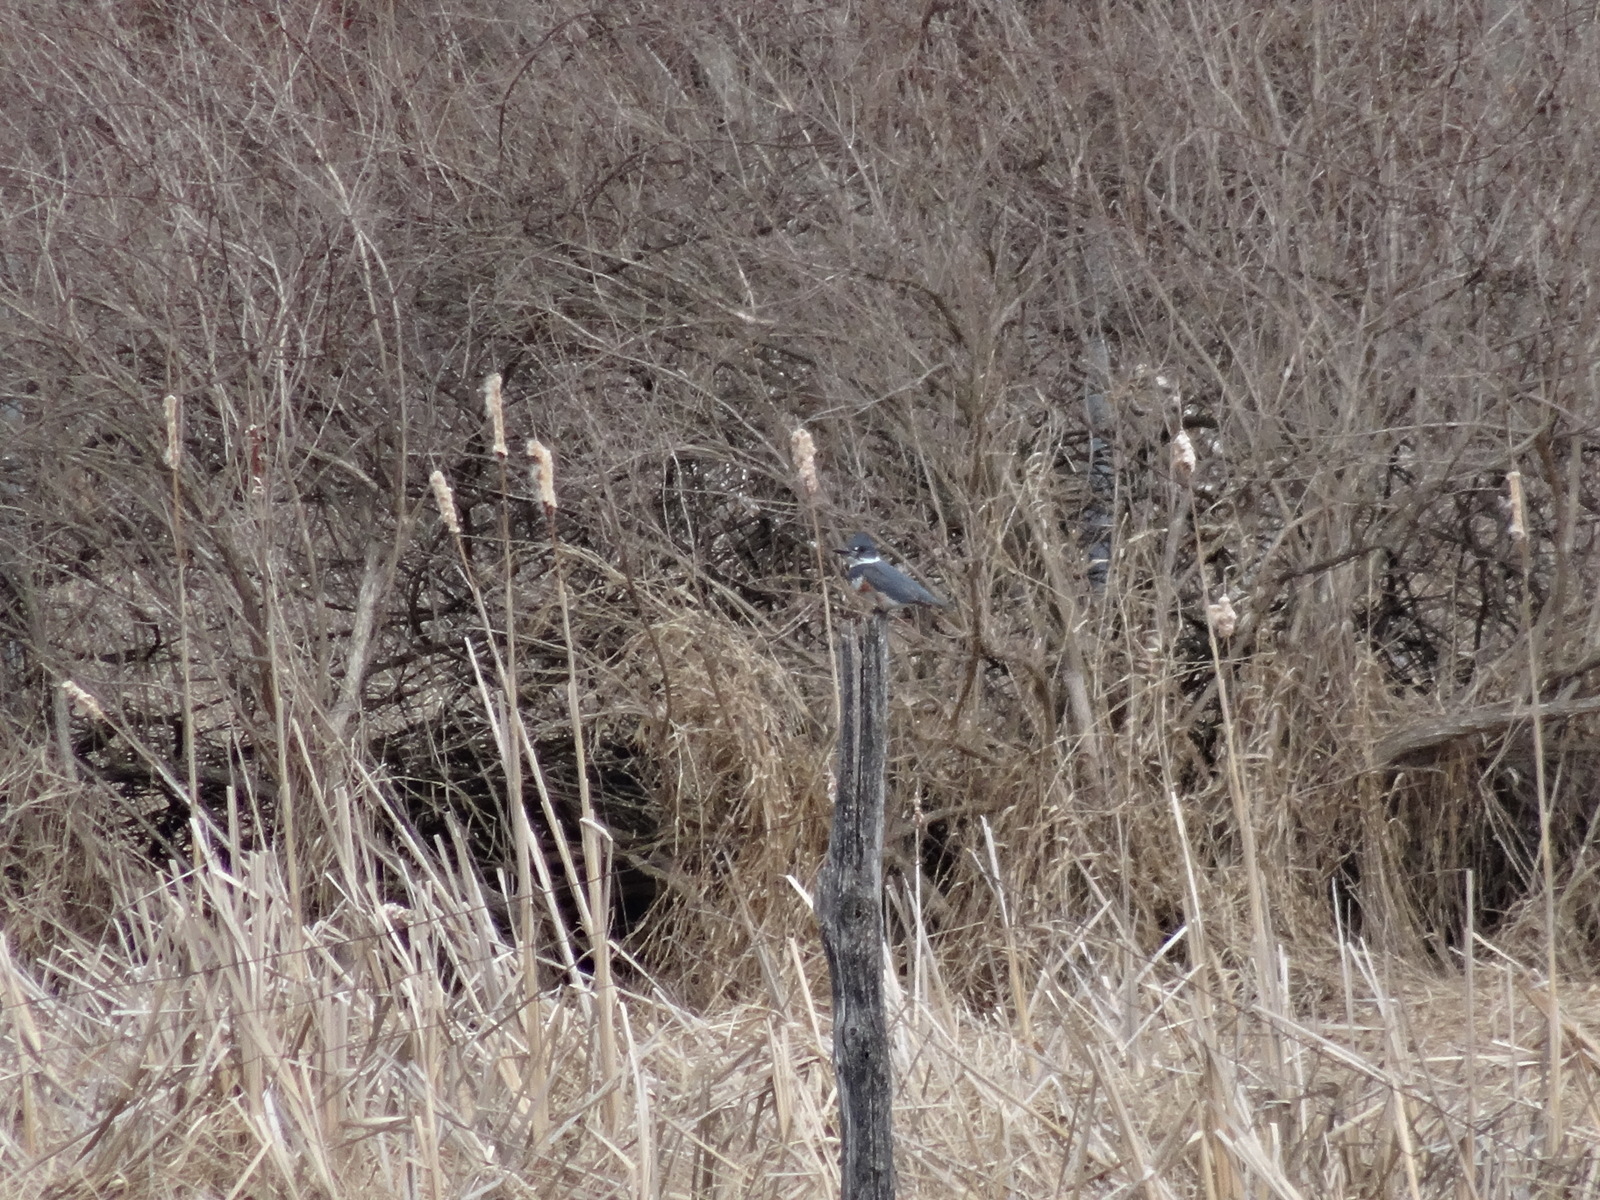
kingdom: Animalia
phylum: Chordata
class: Aves
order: Coraciiformes
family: Alcedinidae
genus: Megaceryle
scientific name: Megaceryle alcyon
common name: Belted kingfisher
